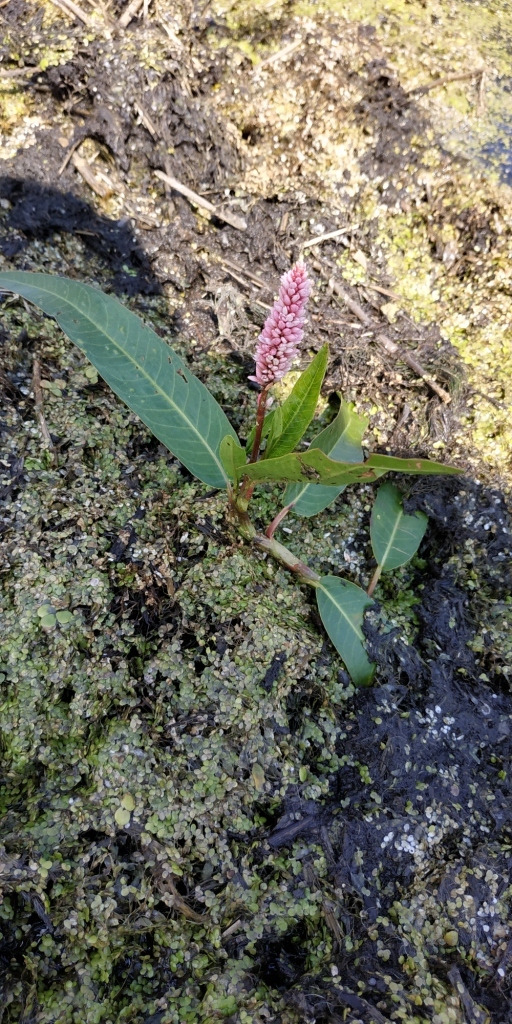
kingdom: Plantae
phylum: Tracheophyta
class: Magnoliopsida
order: Caryophyllales
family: Polygonaceae
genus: Persicaria
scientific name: Persicaria amphibia
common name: Amphibious bistort
